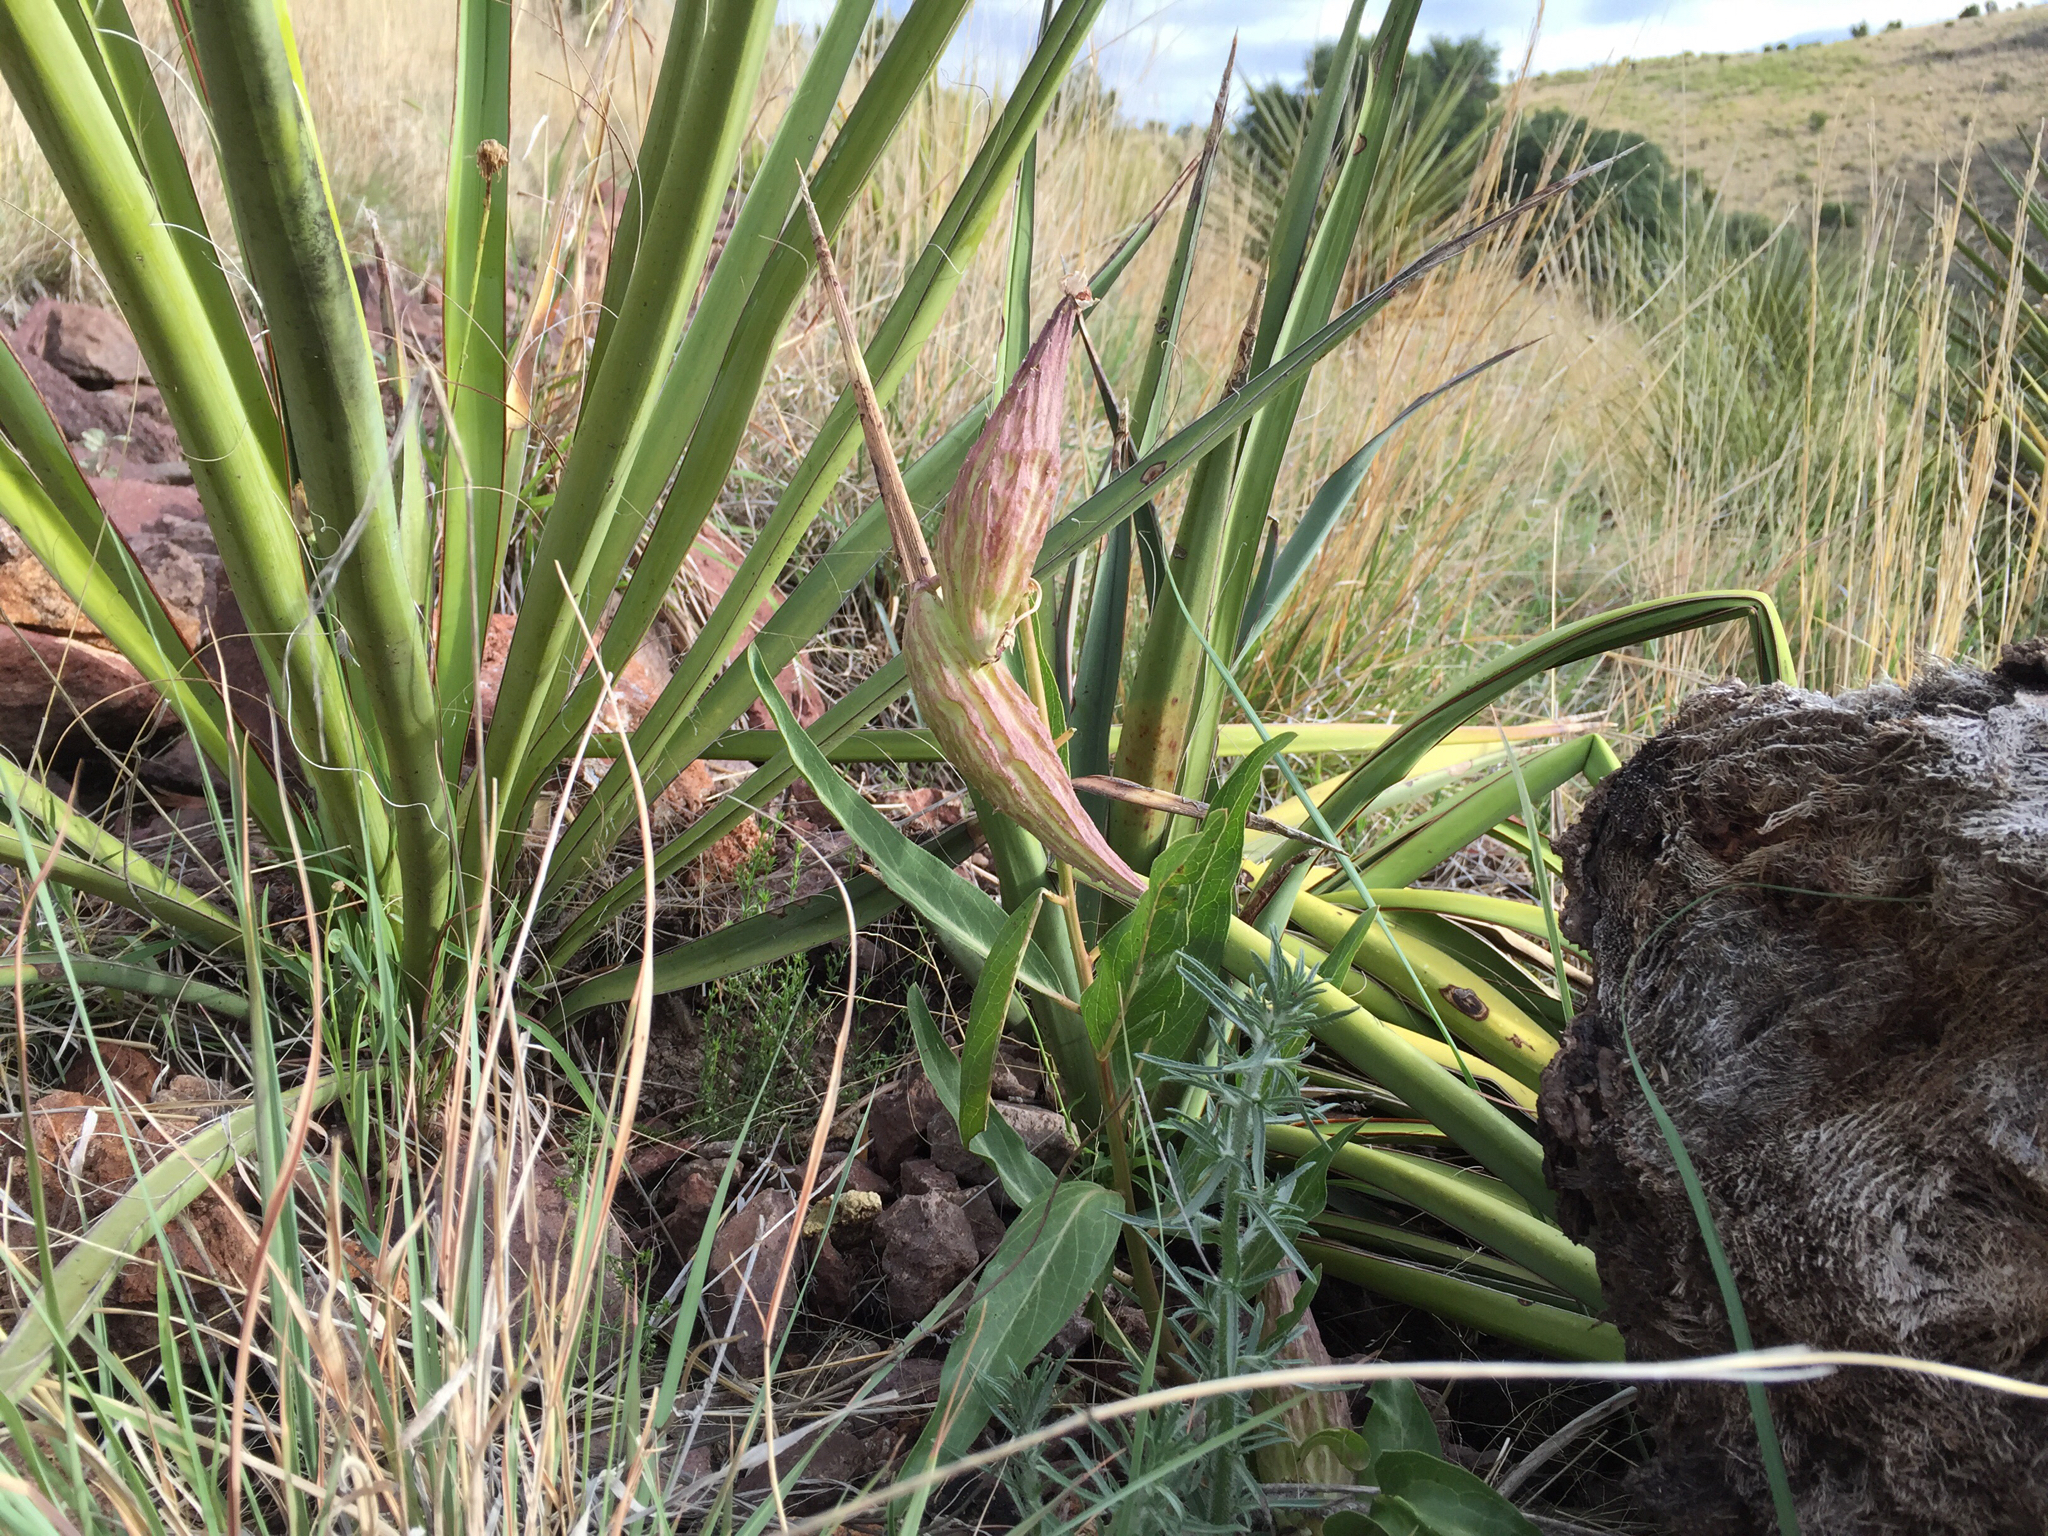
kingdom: Plantae
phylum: Tracheophyta
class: Magnoliopsida
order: Gentianales
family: Apocynaceae
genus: Asclepias
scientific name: Asclepias asperula
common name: Antelope horns
